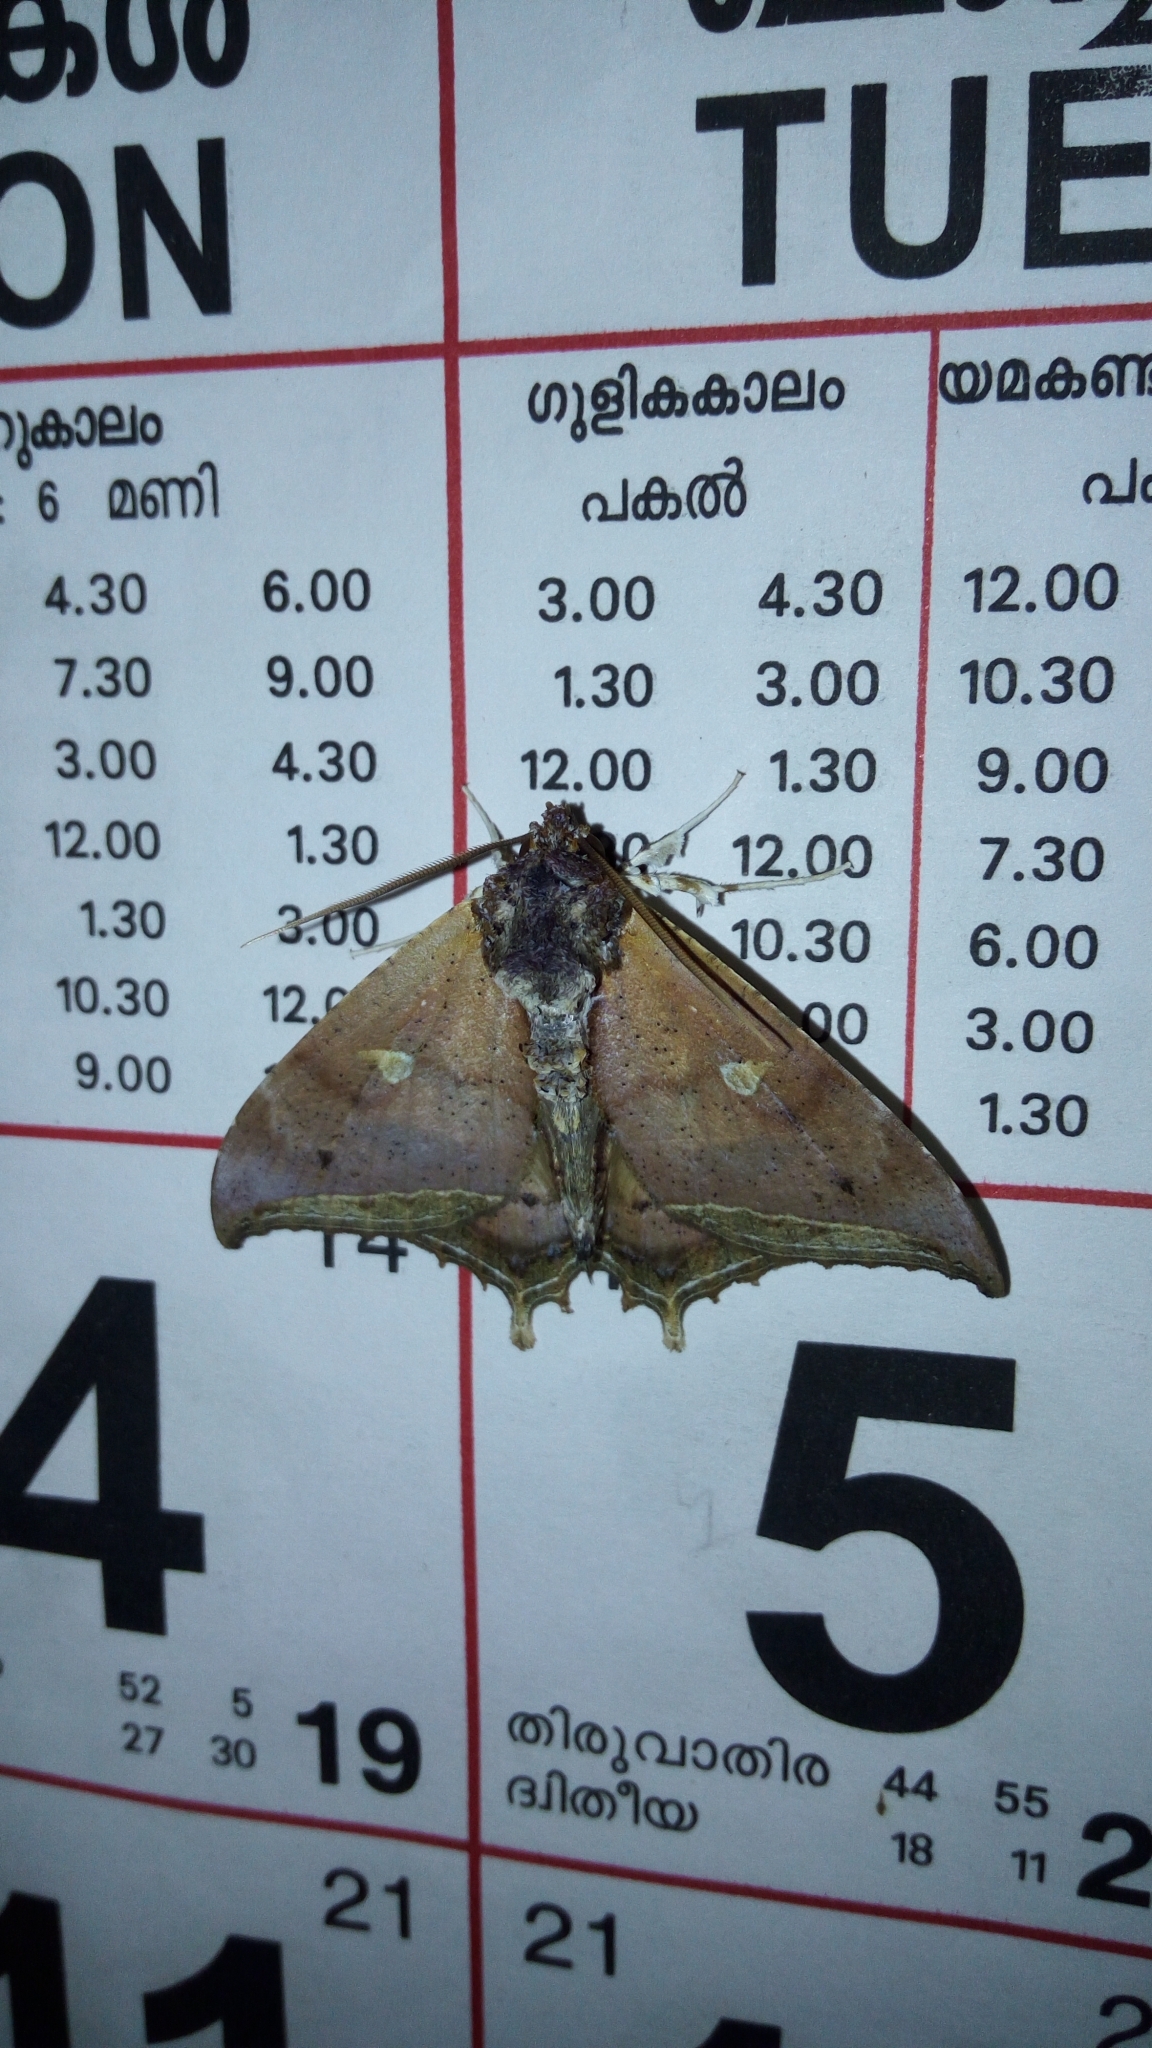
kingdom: Animalia
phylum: Arthropoda
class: Insecta
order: Lepidoptera
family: Erebidae
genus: Pterocyclophora
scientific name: Pterocyclophora pictimargo
